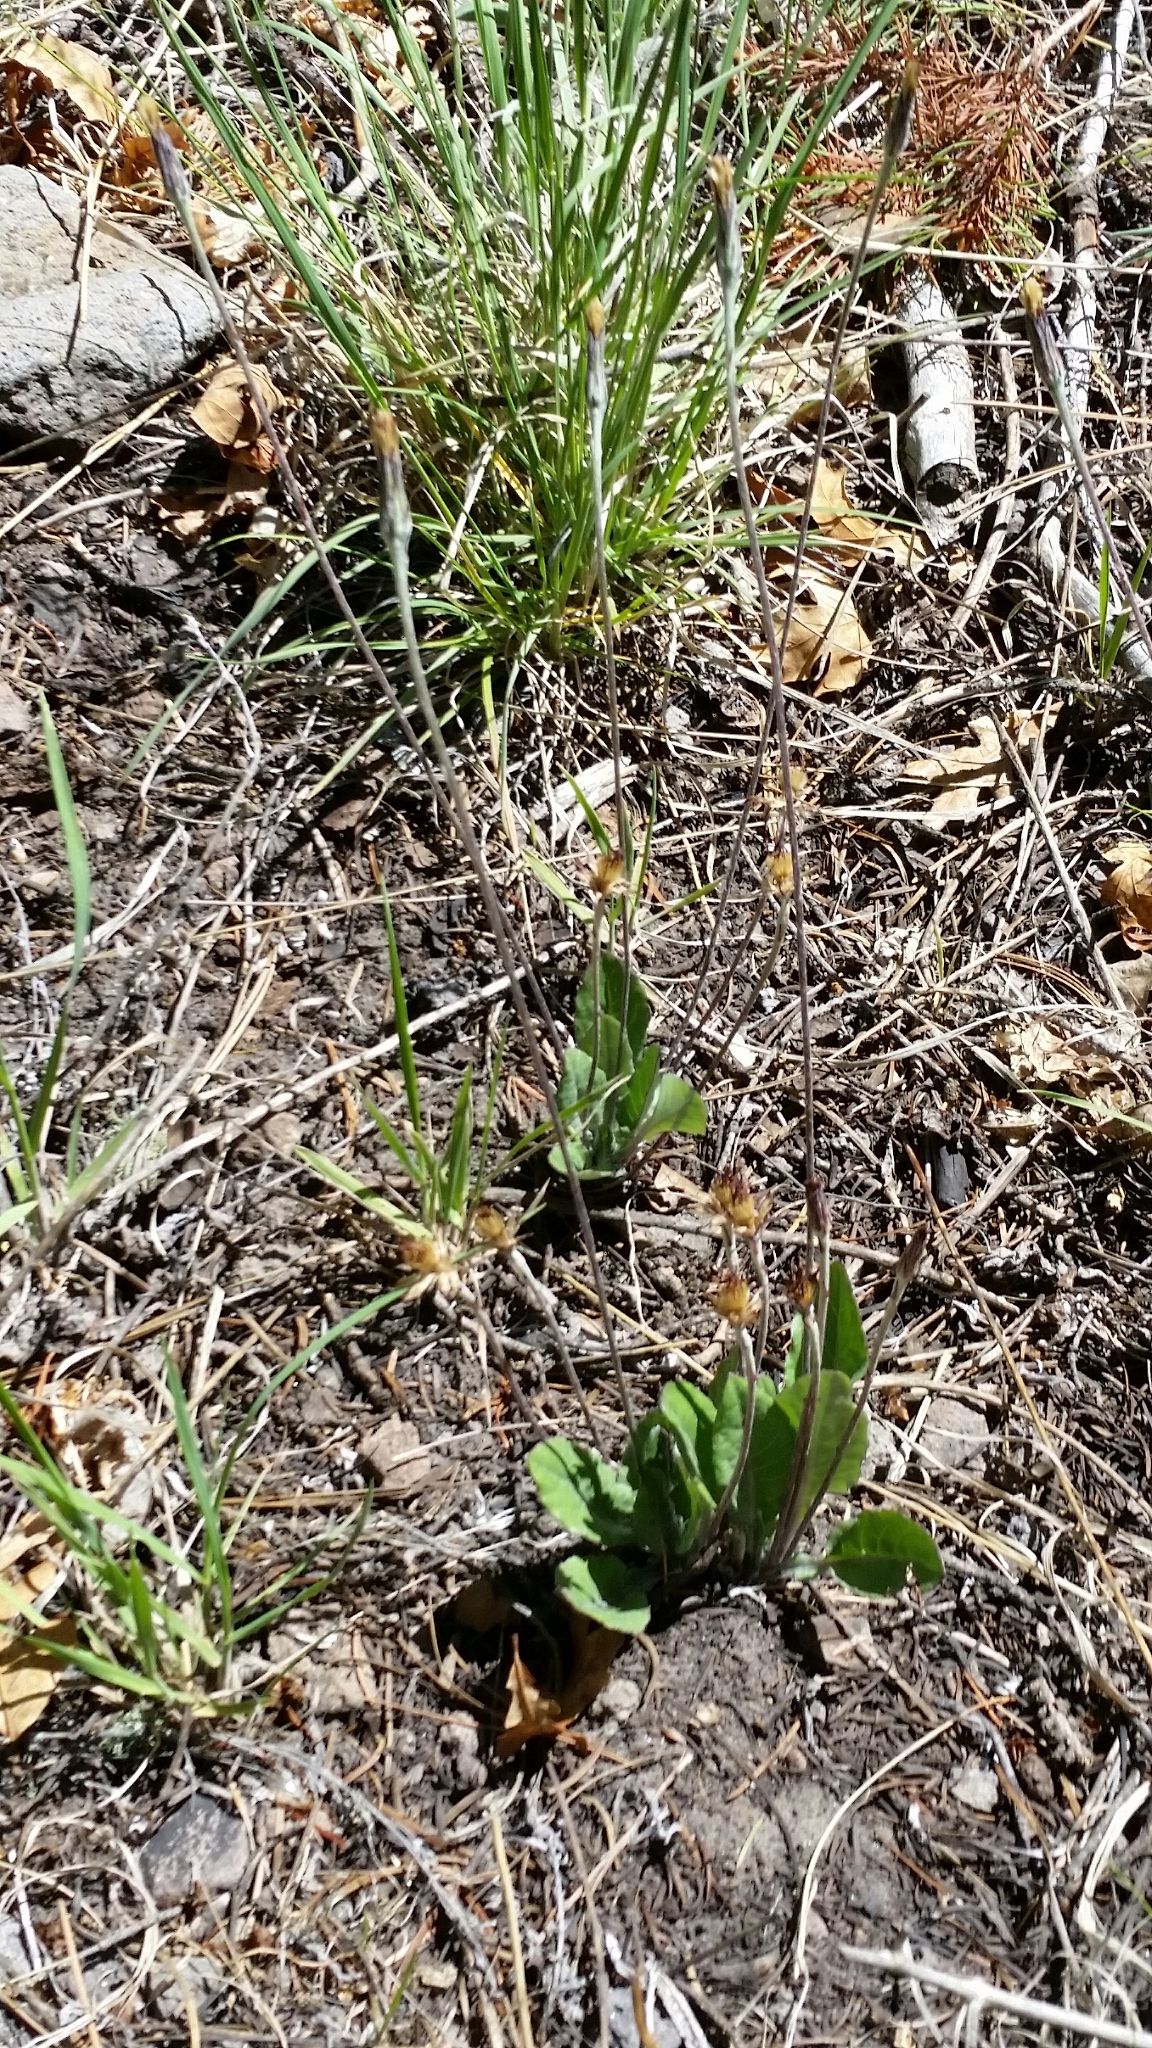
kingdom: Plantae
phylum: Tracheophyta
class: Magnoliopsida
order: Asterales
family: Asteraceae
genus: Leibnitzia
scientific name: Leibnitzia lyrata
